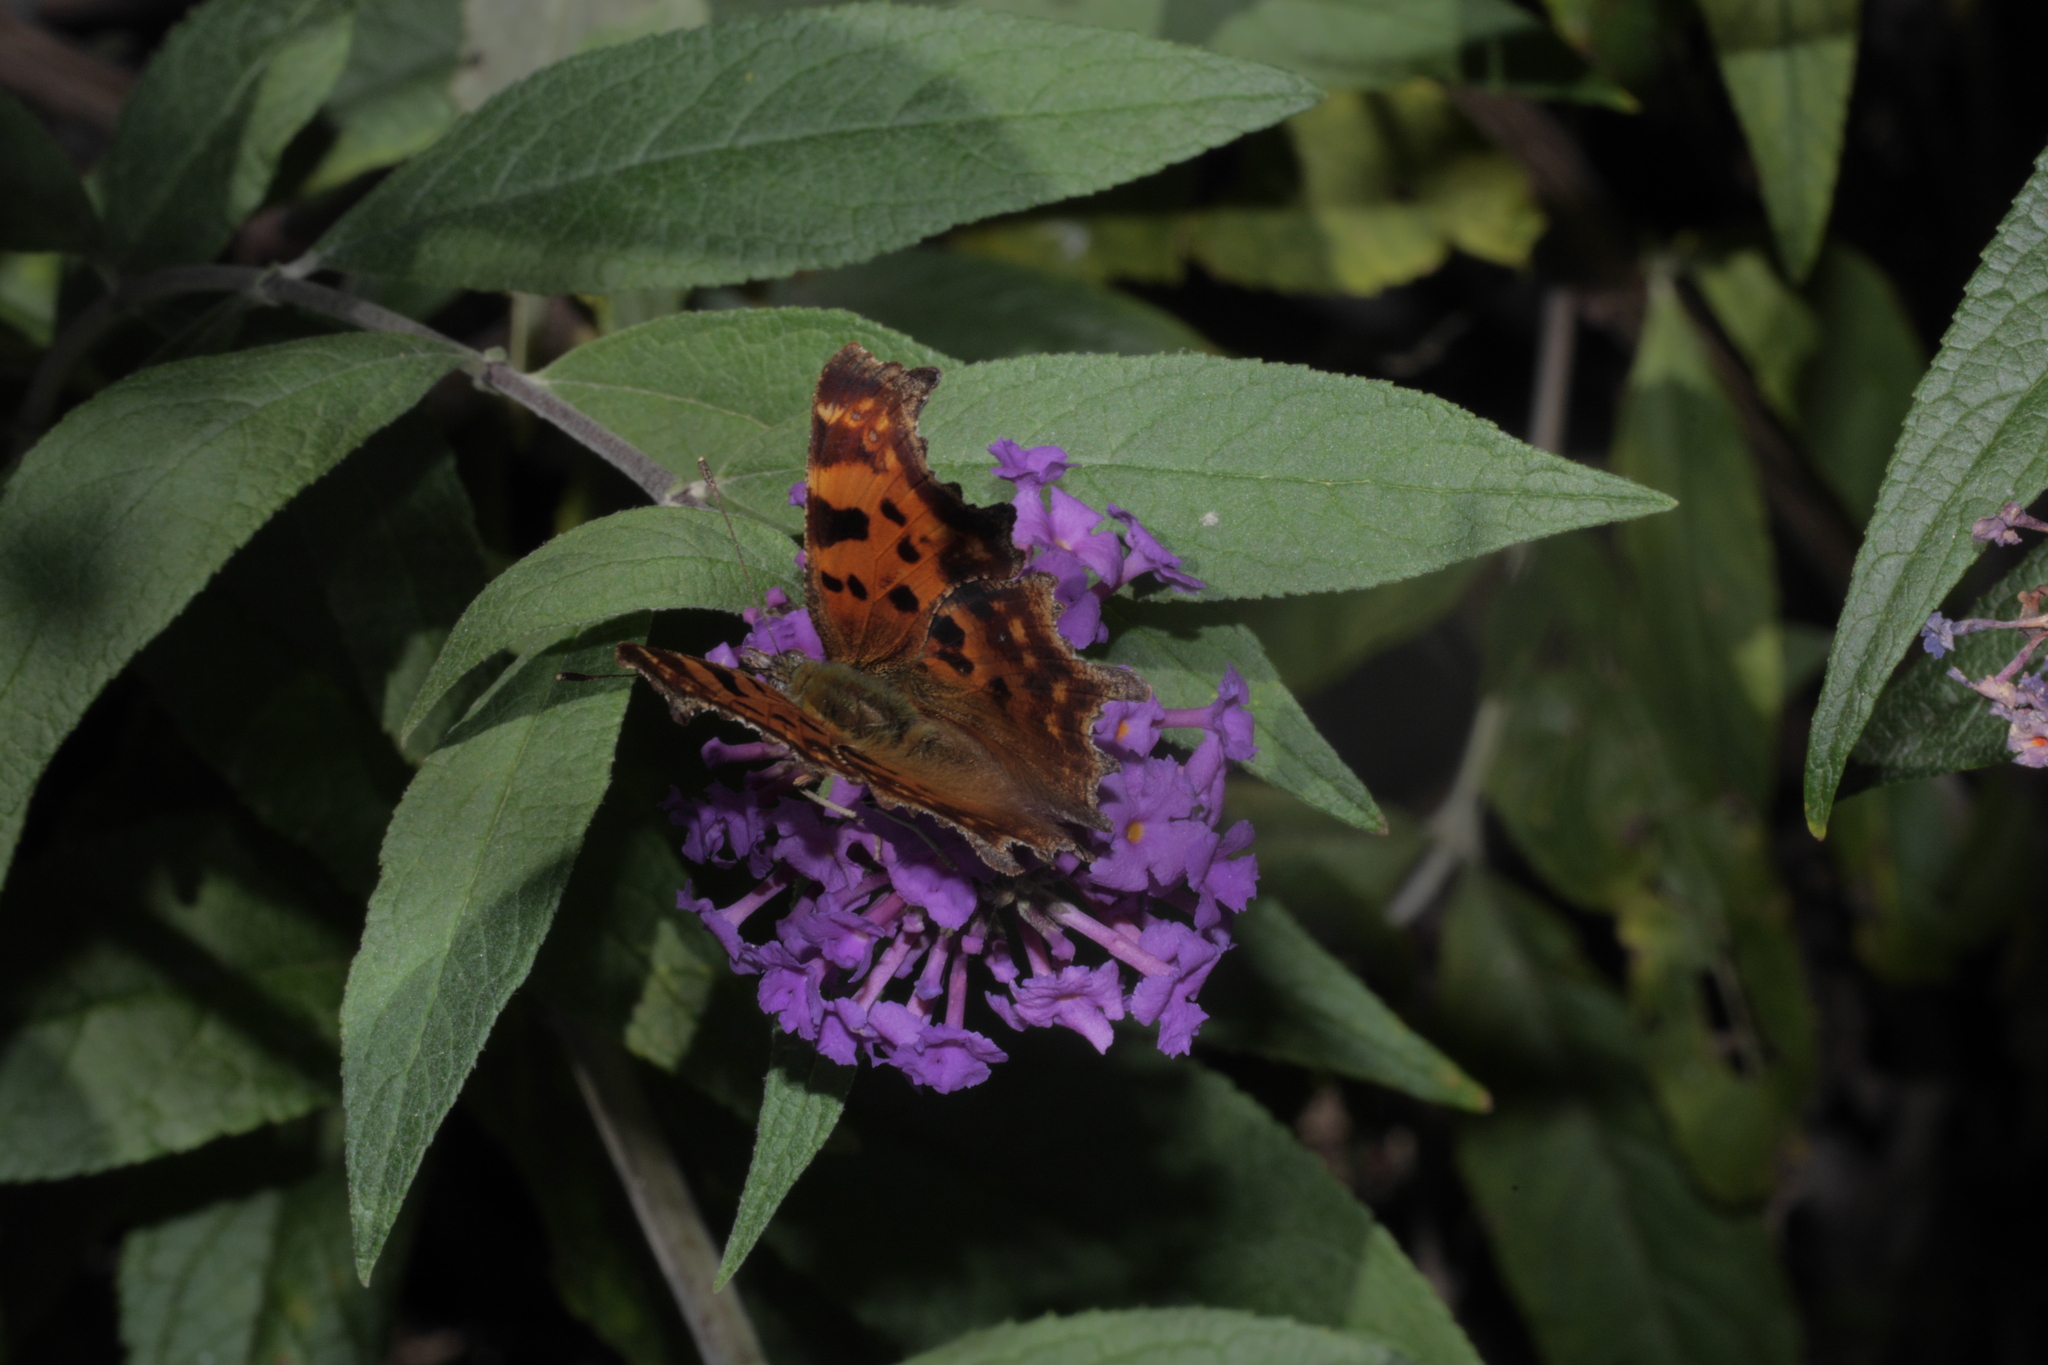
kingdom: Animalia
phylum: Arthropoda
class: Insecta
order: Lepidoptera
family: Nymphalidae
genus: Polygonia
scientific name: Polygonia c-album
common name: Comma
